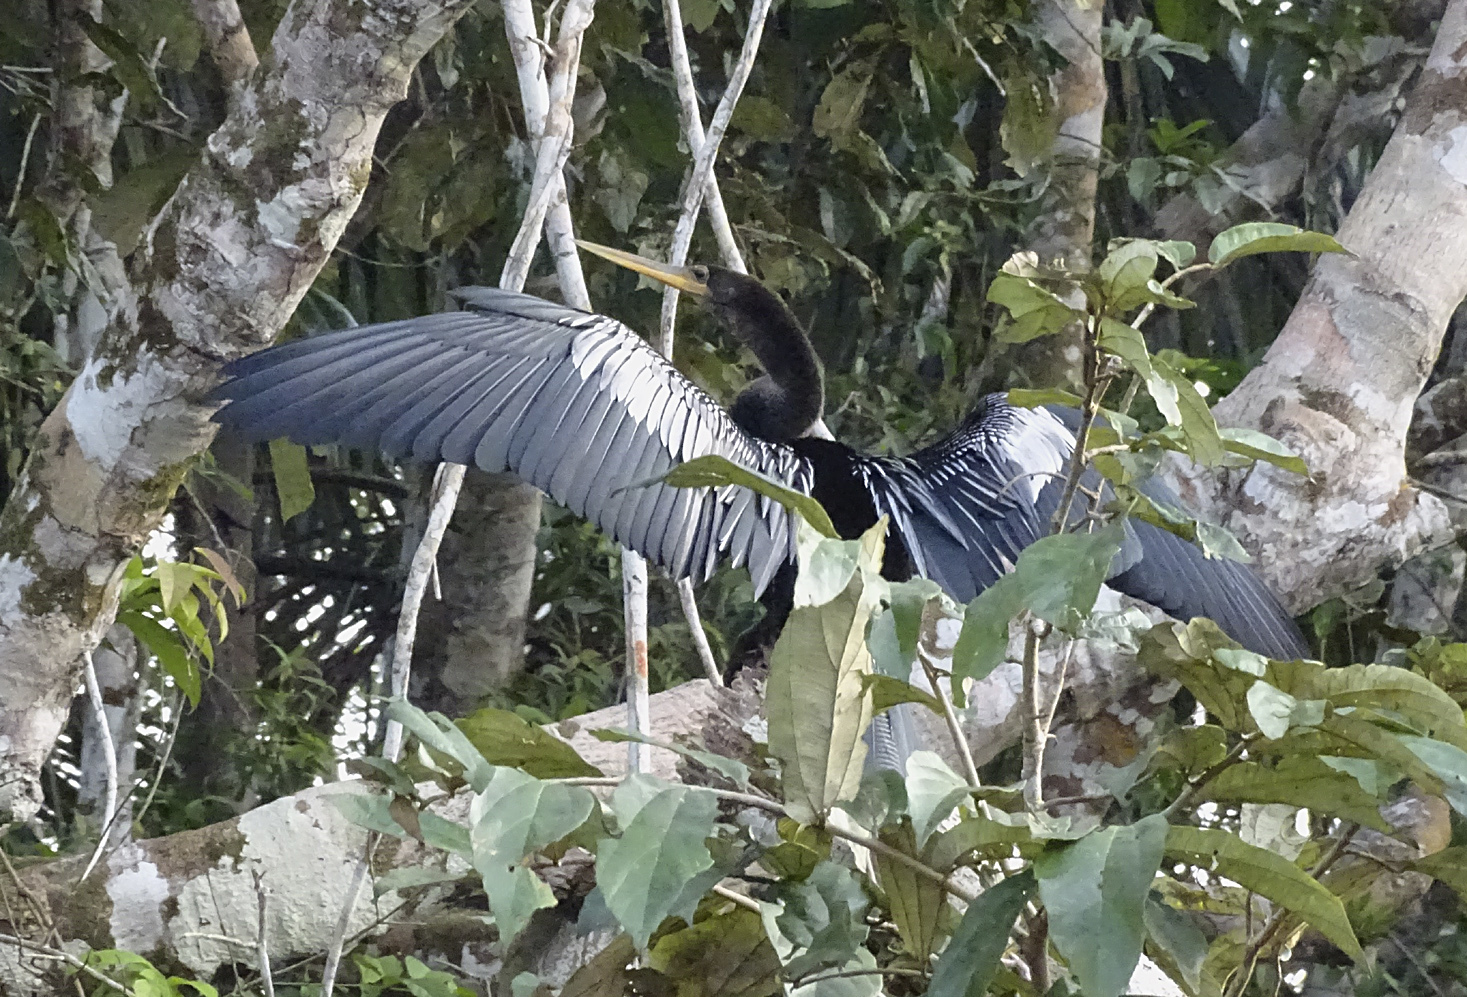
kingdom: Animalia
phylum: Chordata
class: Aves
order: Suliformes
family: Anhingidae
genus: Anhinga
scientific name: Anhinga anhinga
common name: Anhinga
